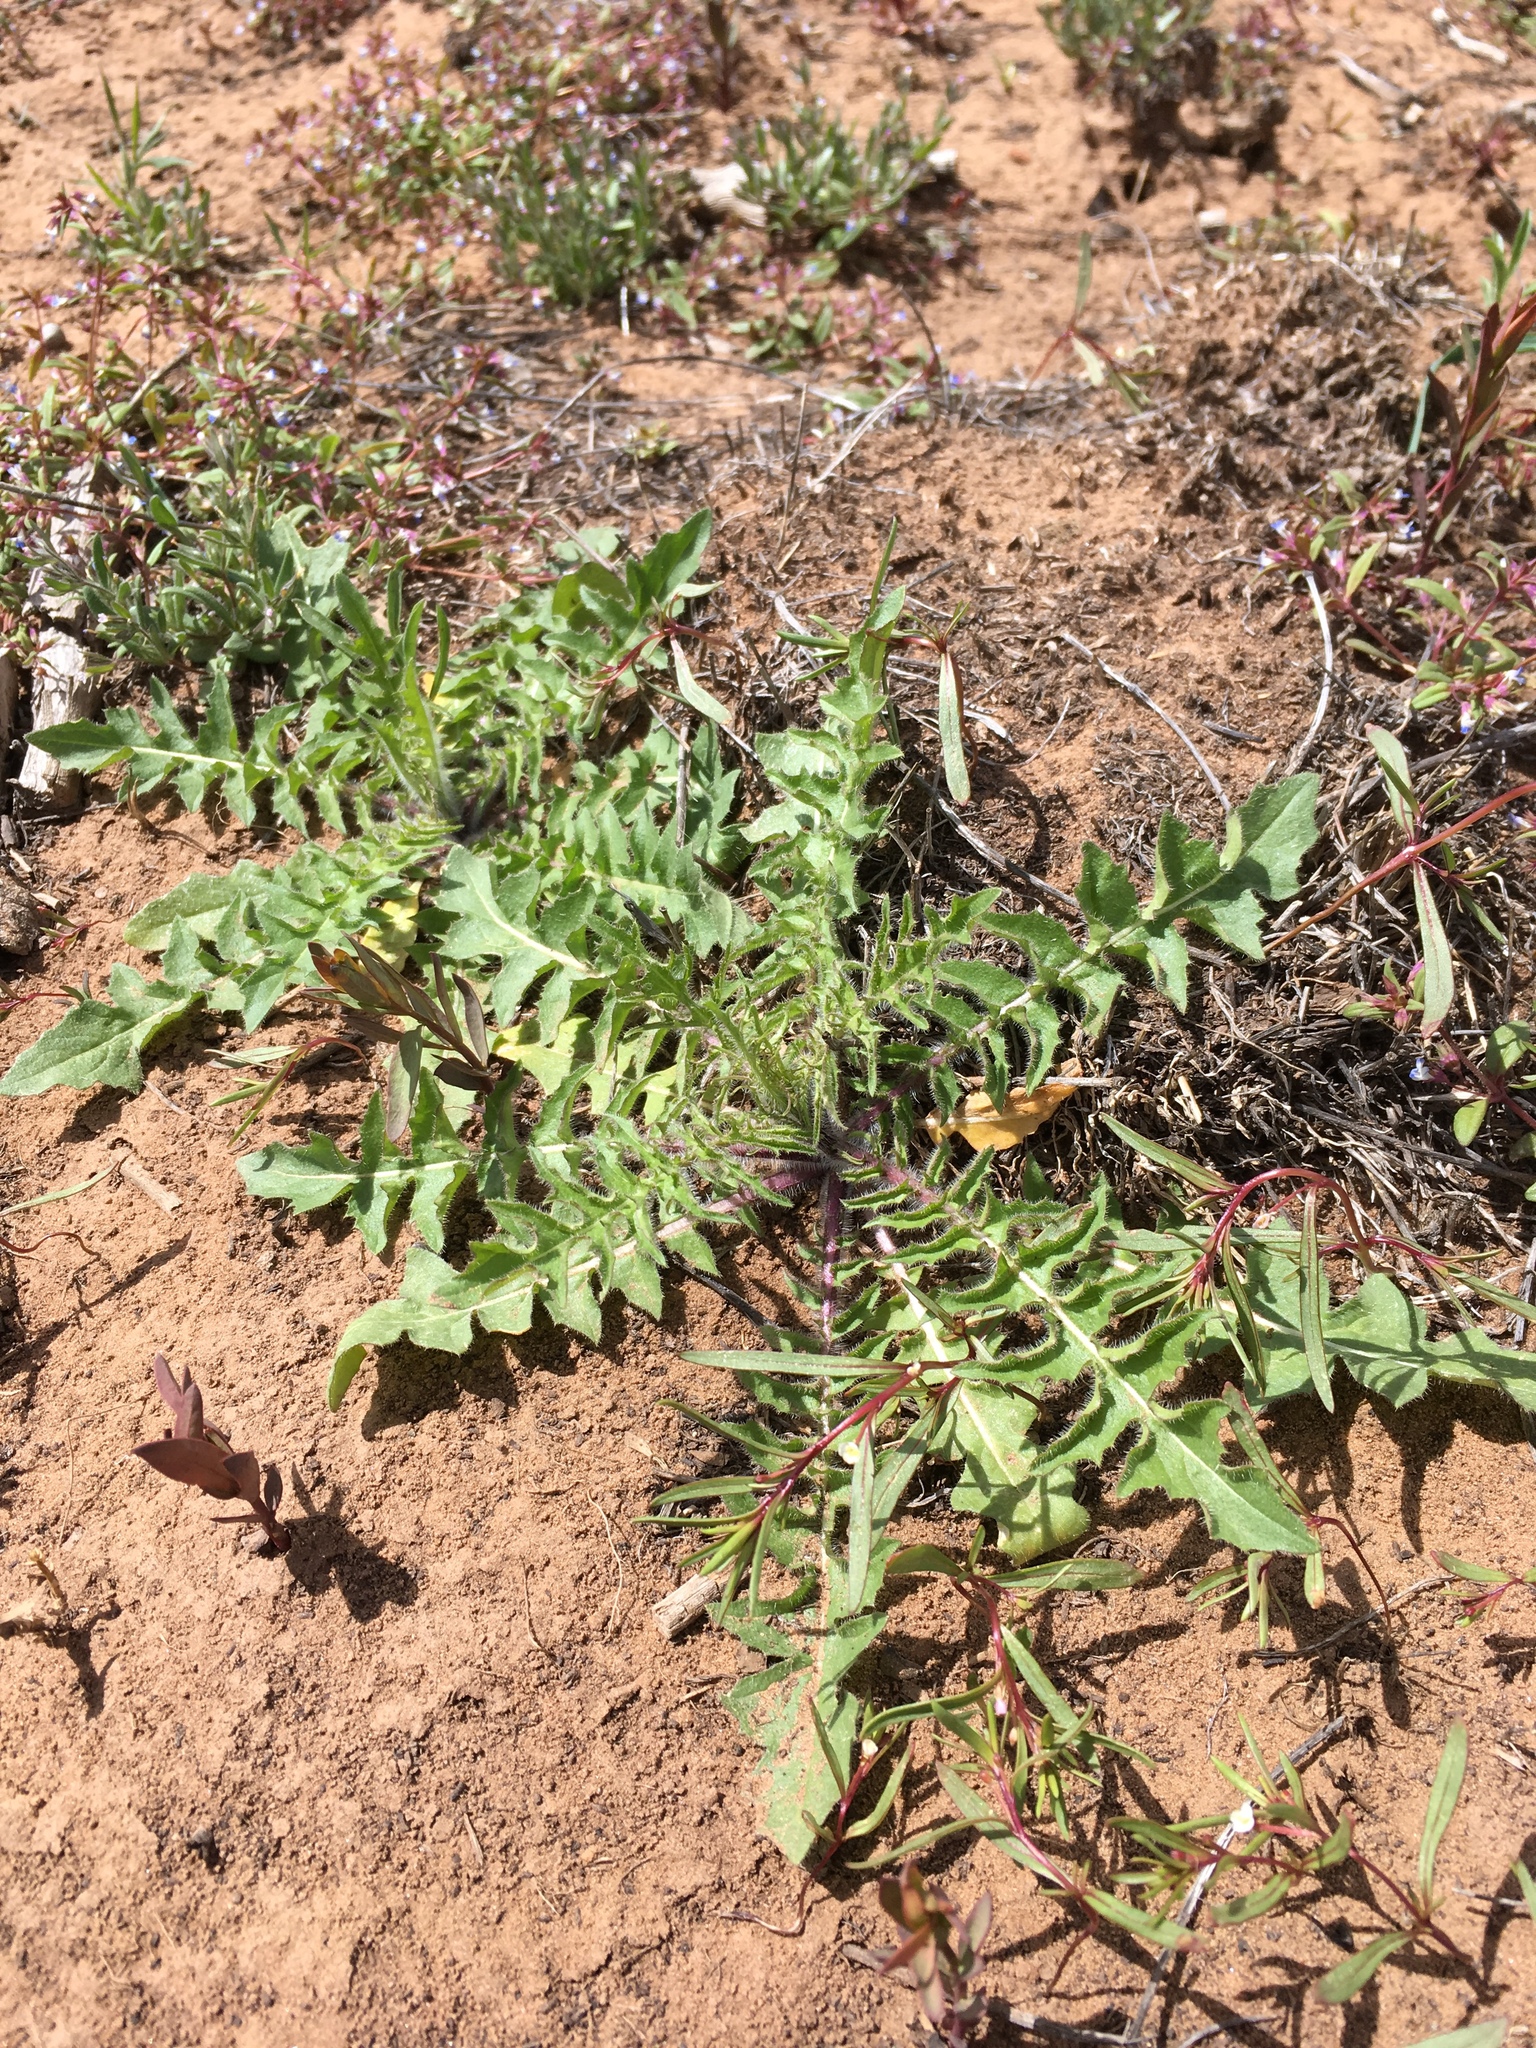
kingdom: Plantae
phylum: Tracheophyta
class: Magnoliopsida
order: Brassicales
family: Brassicaceae
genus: Sisymbrium
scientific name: Sisymbrium altissimum
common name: Tall rocket
